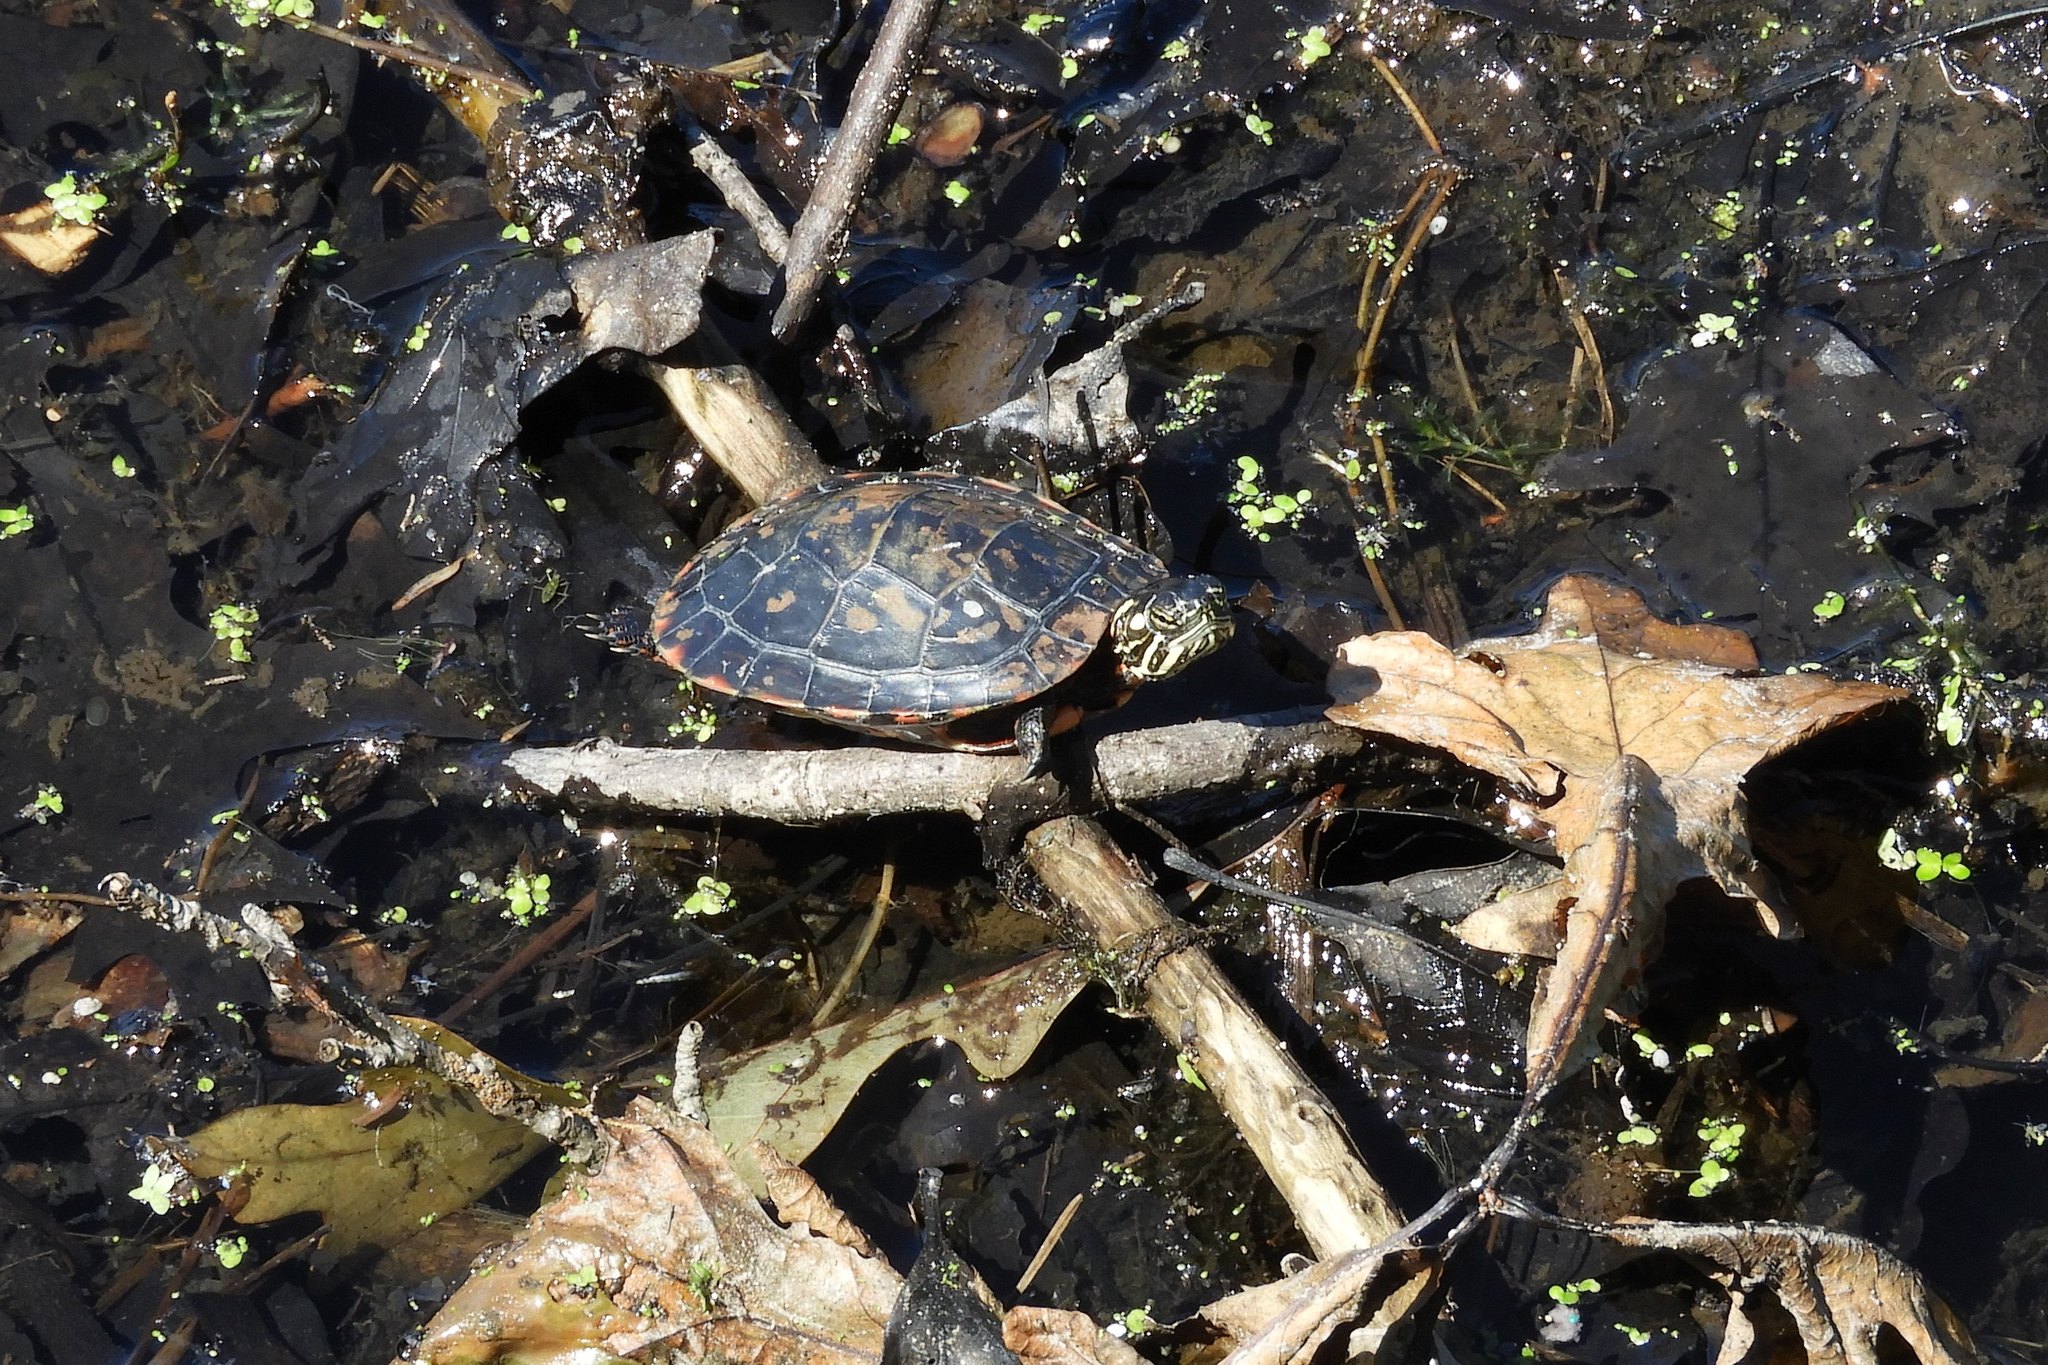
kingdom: Animalia
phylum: Chordata
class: Testudines
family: Emydidae
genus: Chrysemys
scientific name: Chrysemys picta
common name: Painted turtle
